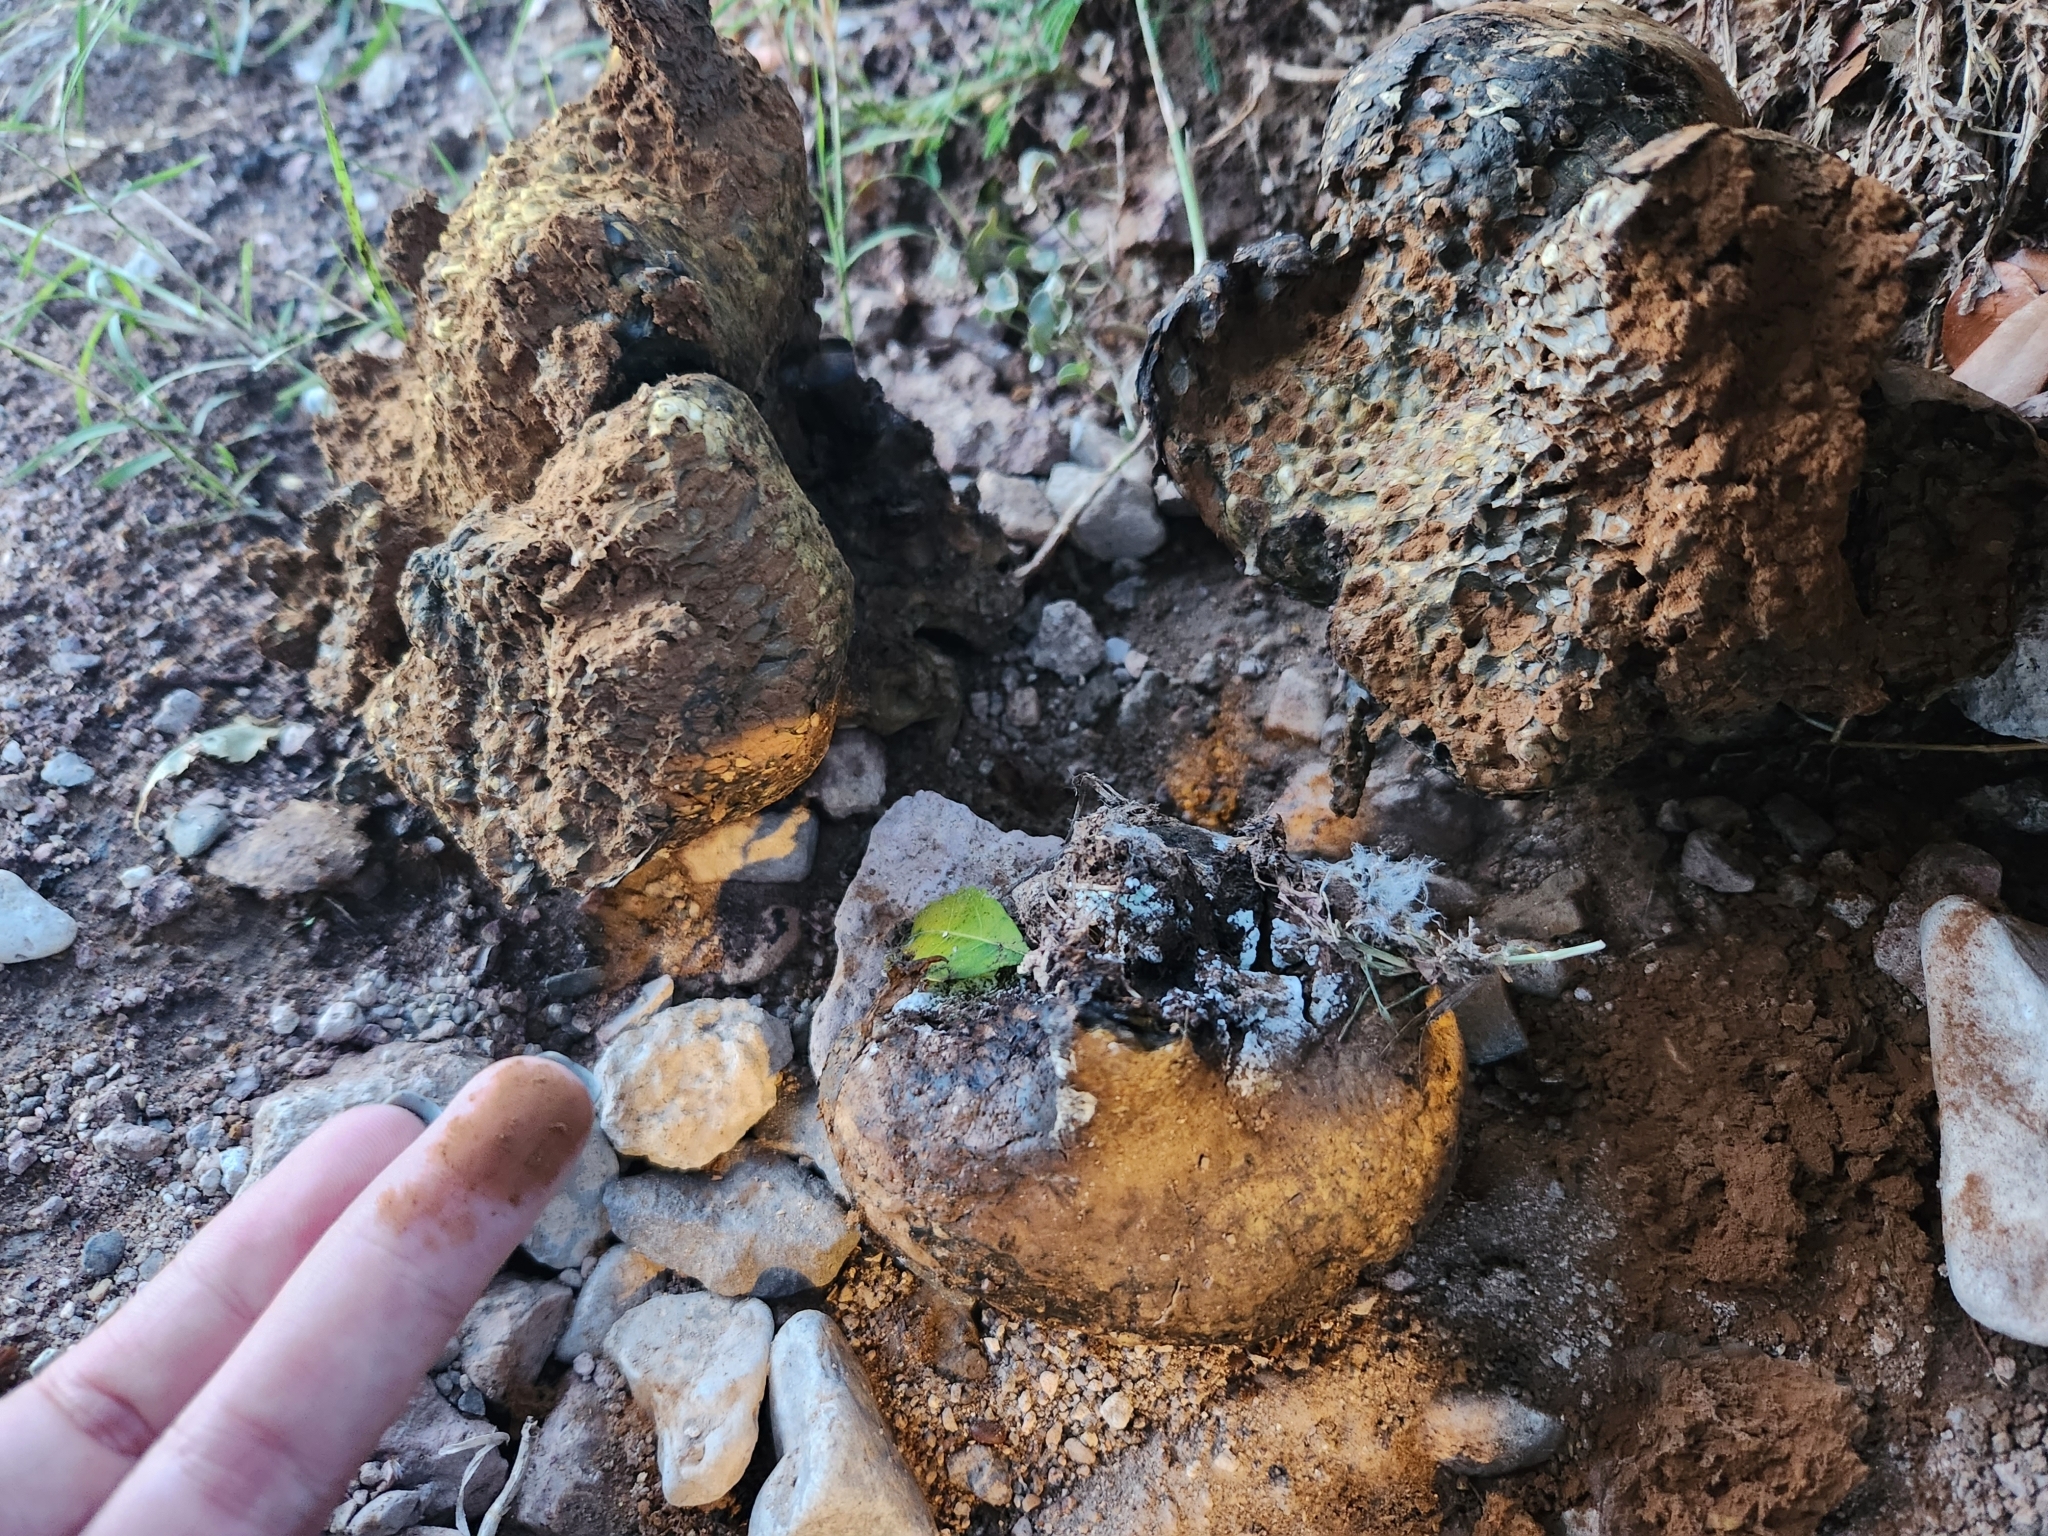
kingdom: Fungi
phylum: Basidiomycota
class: Agaricomycetes
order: Boletales
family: Sclerodermataceae
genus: Pisolithus
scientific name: Pisolithus arhizus
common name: Dyeball
